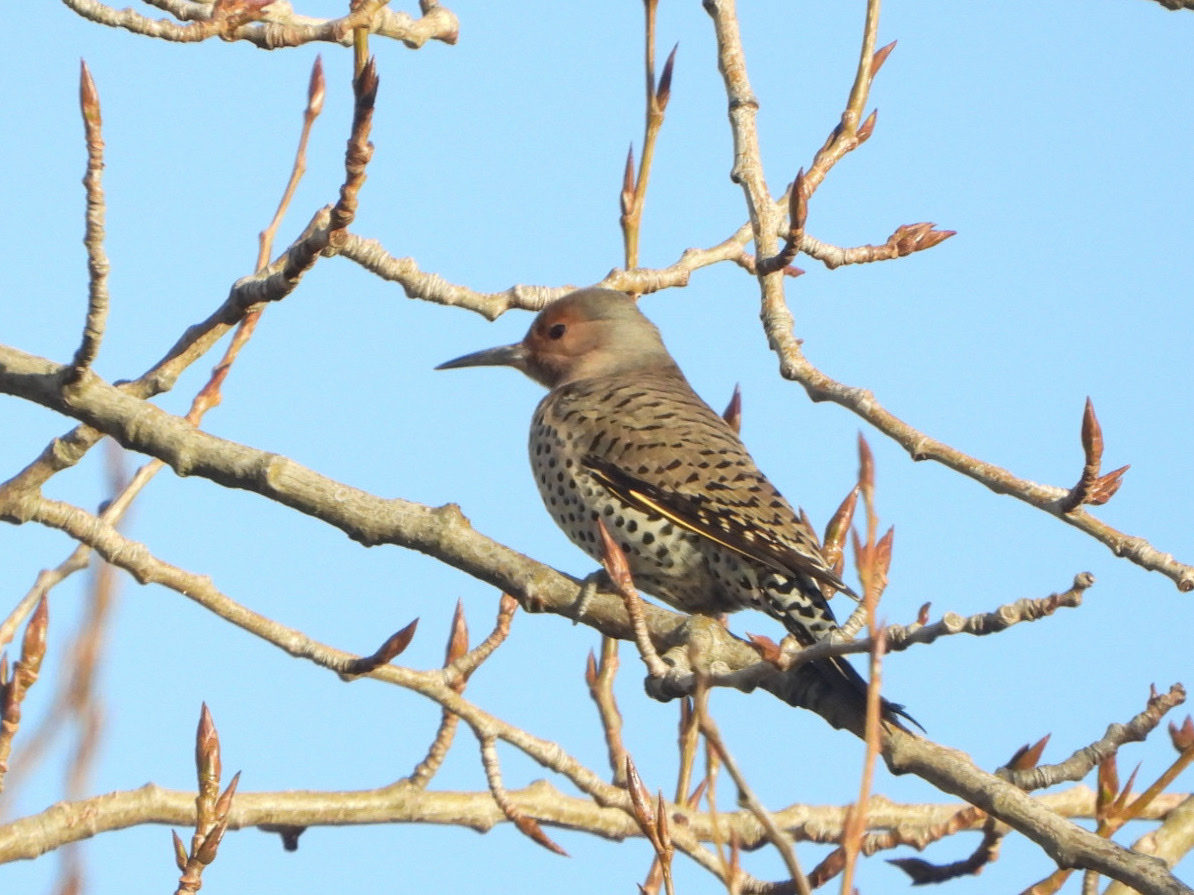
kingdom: Animalia
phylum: Chordata
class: Aves
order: Piciformes
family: Picidae
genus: Colaptes
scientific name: Colaptes
